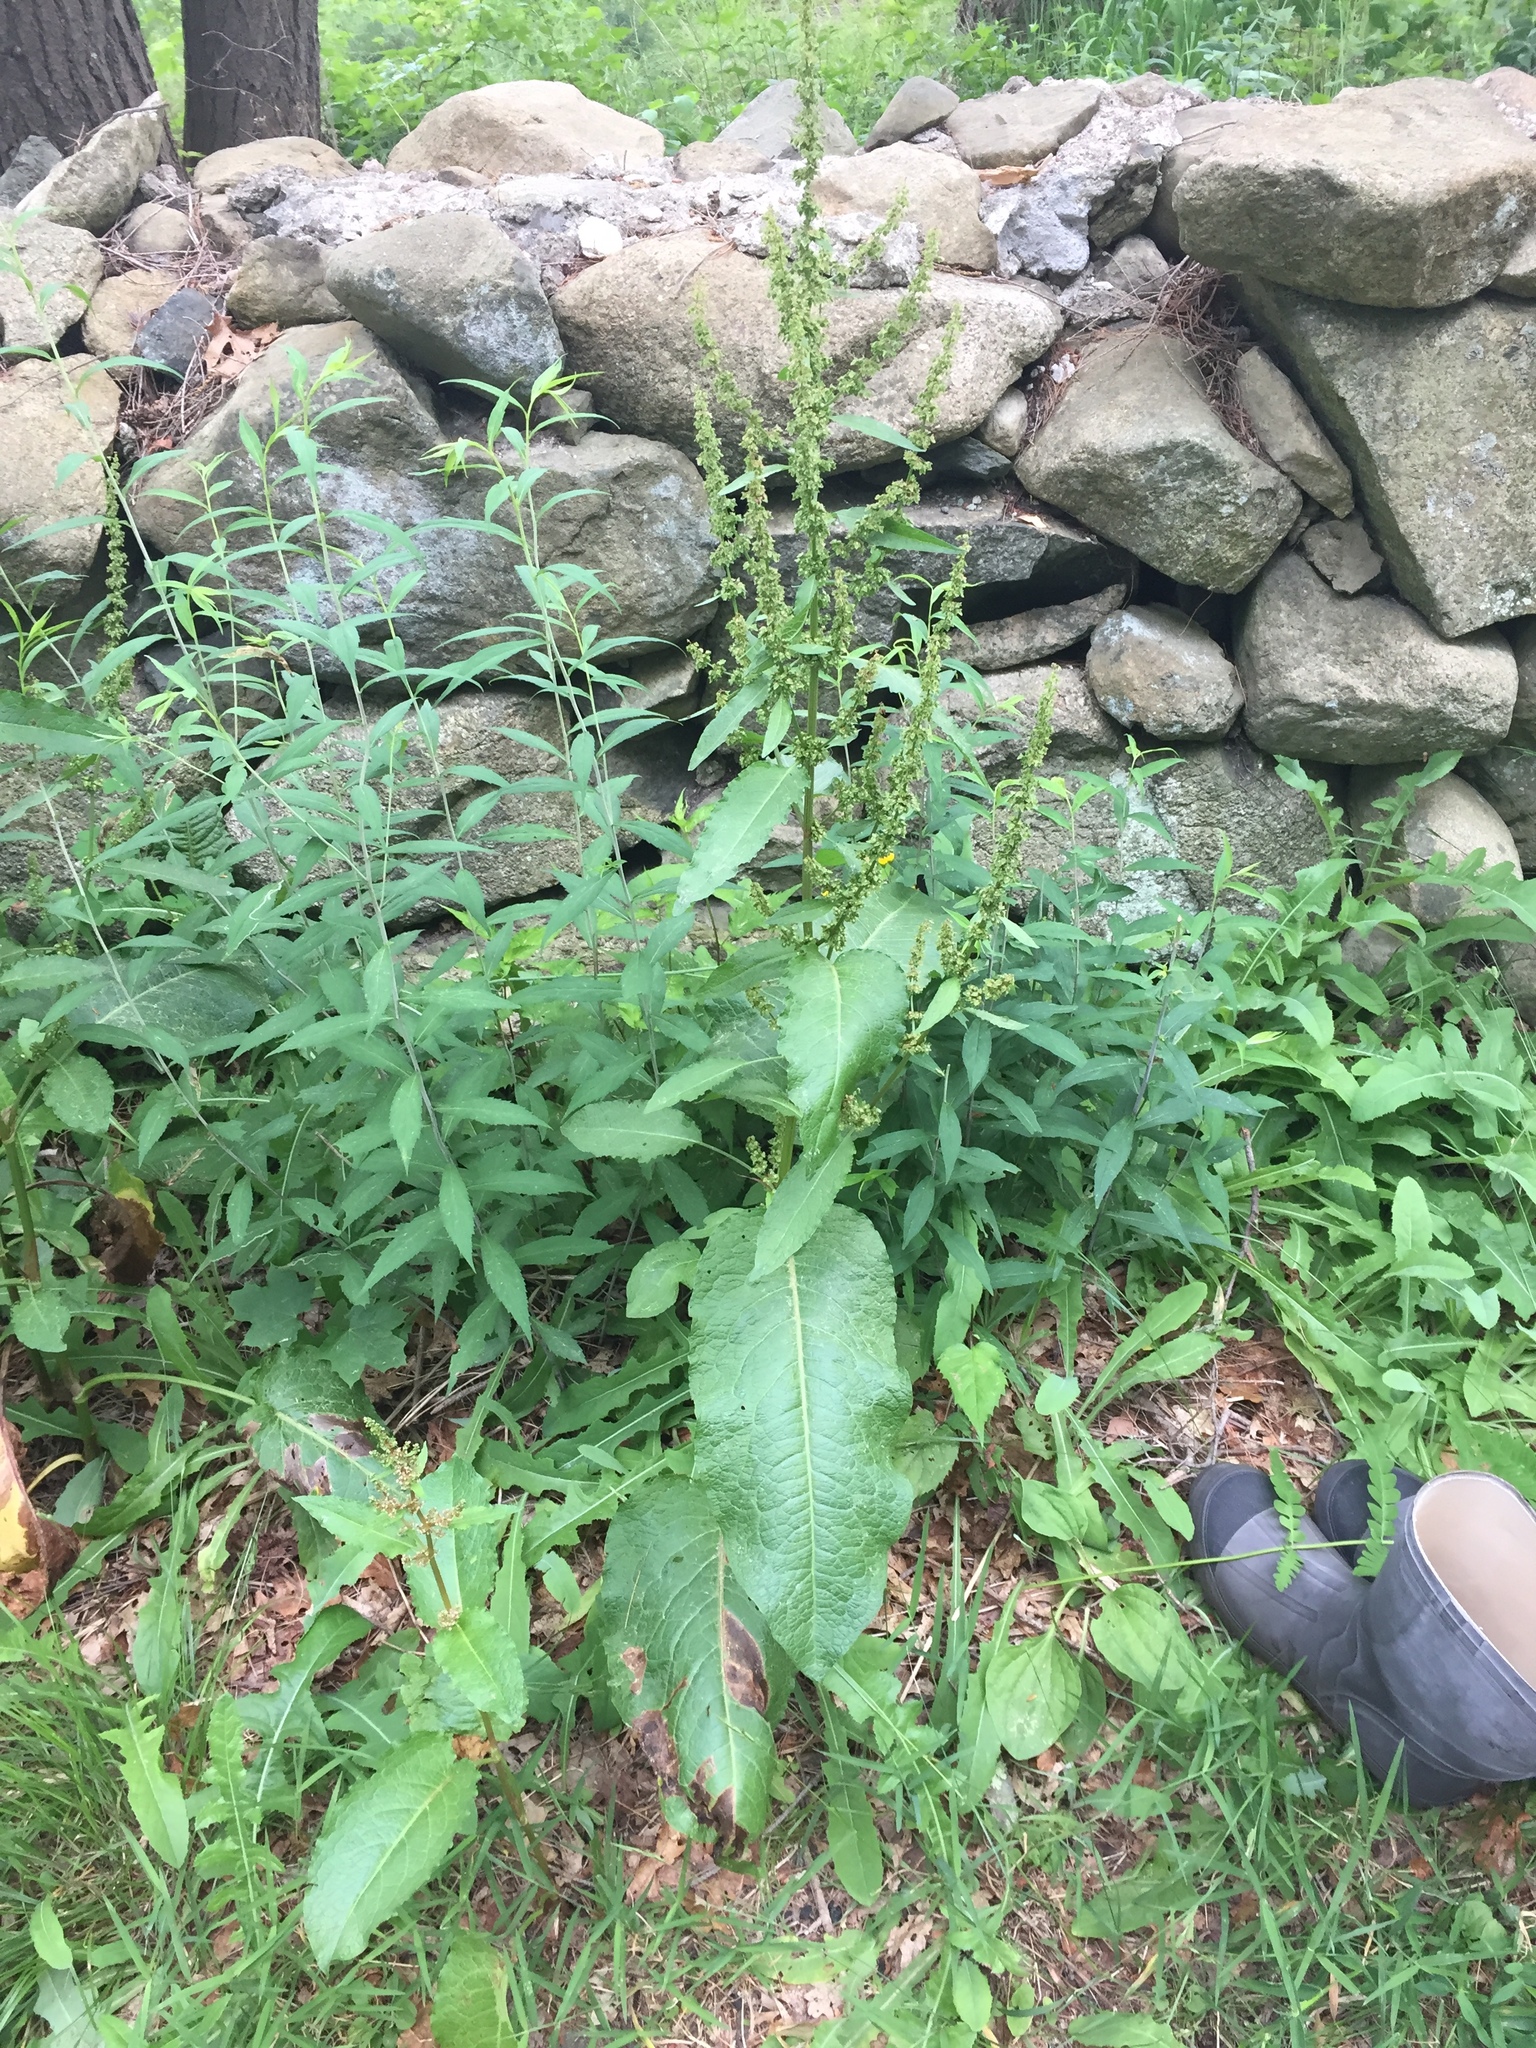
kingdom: Plantae
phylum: Tracheophyta
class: Magnoliopsida
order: Caryophyllales
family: Polygonaceae
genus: Rumex
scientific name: Rumex obtusifolius
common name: Bitter dock
